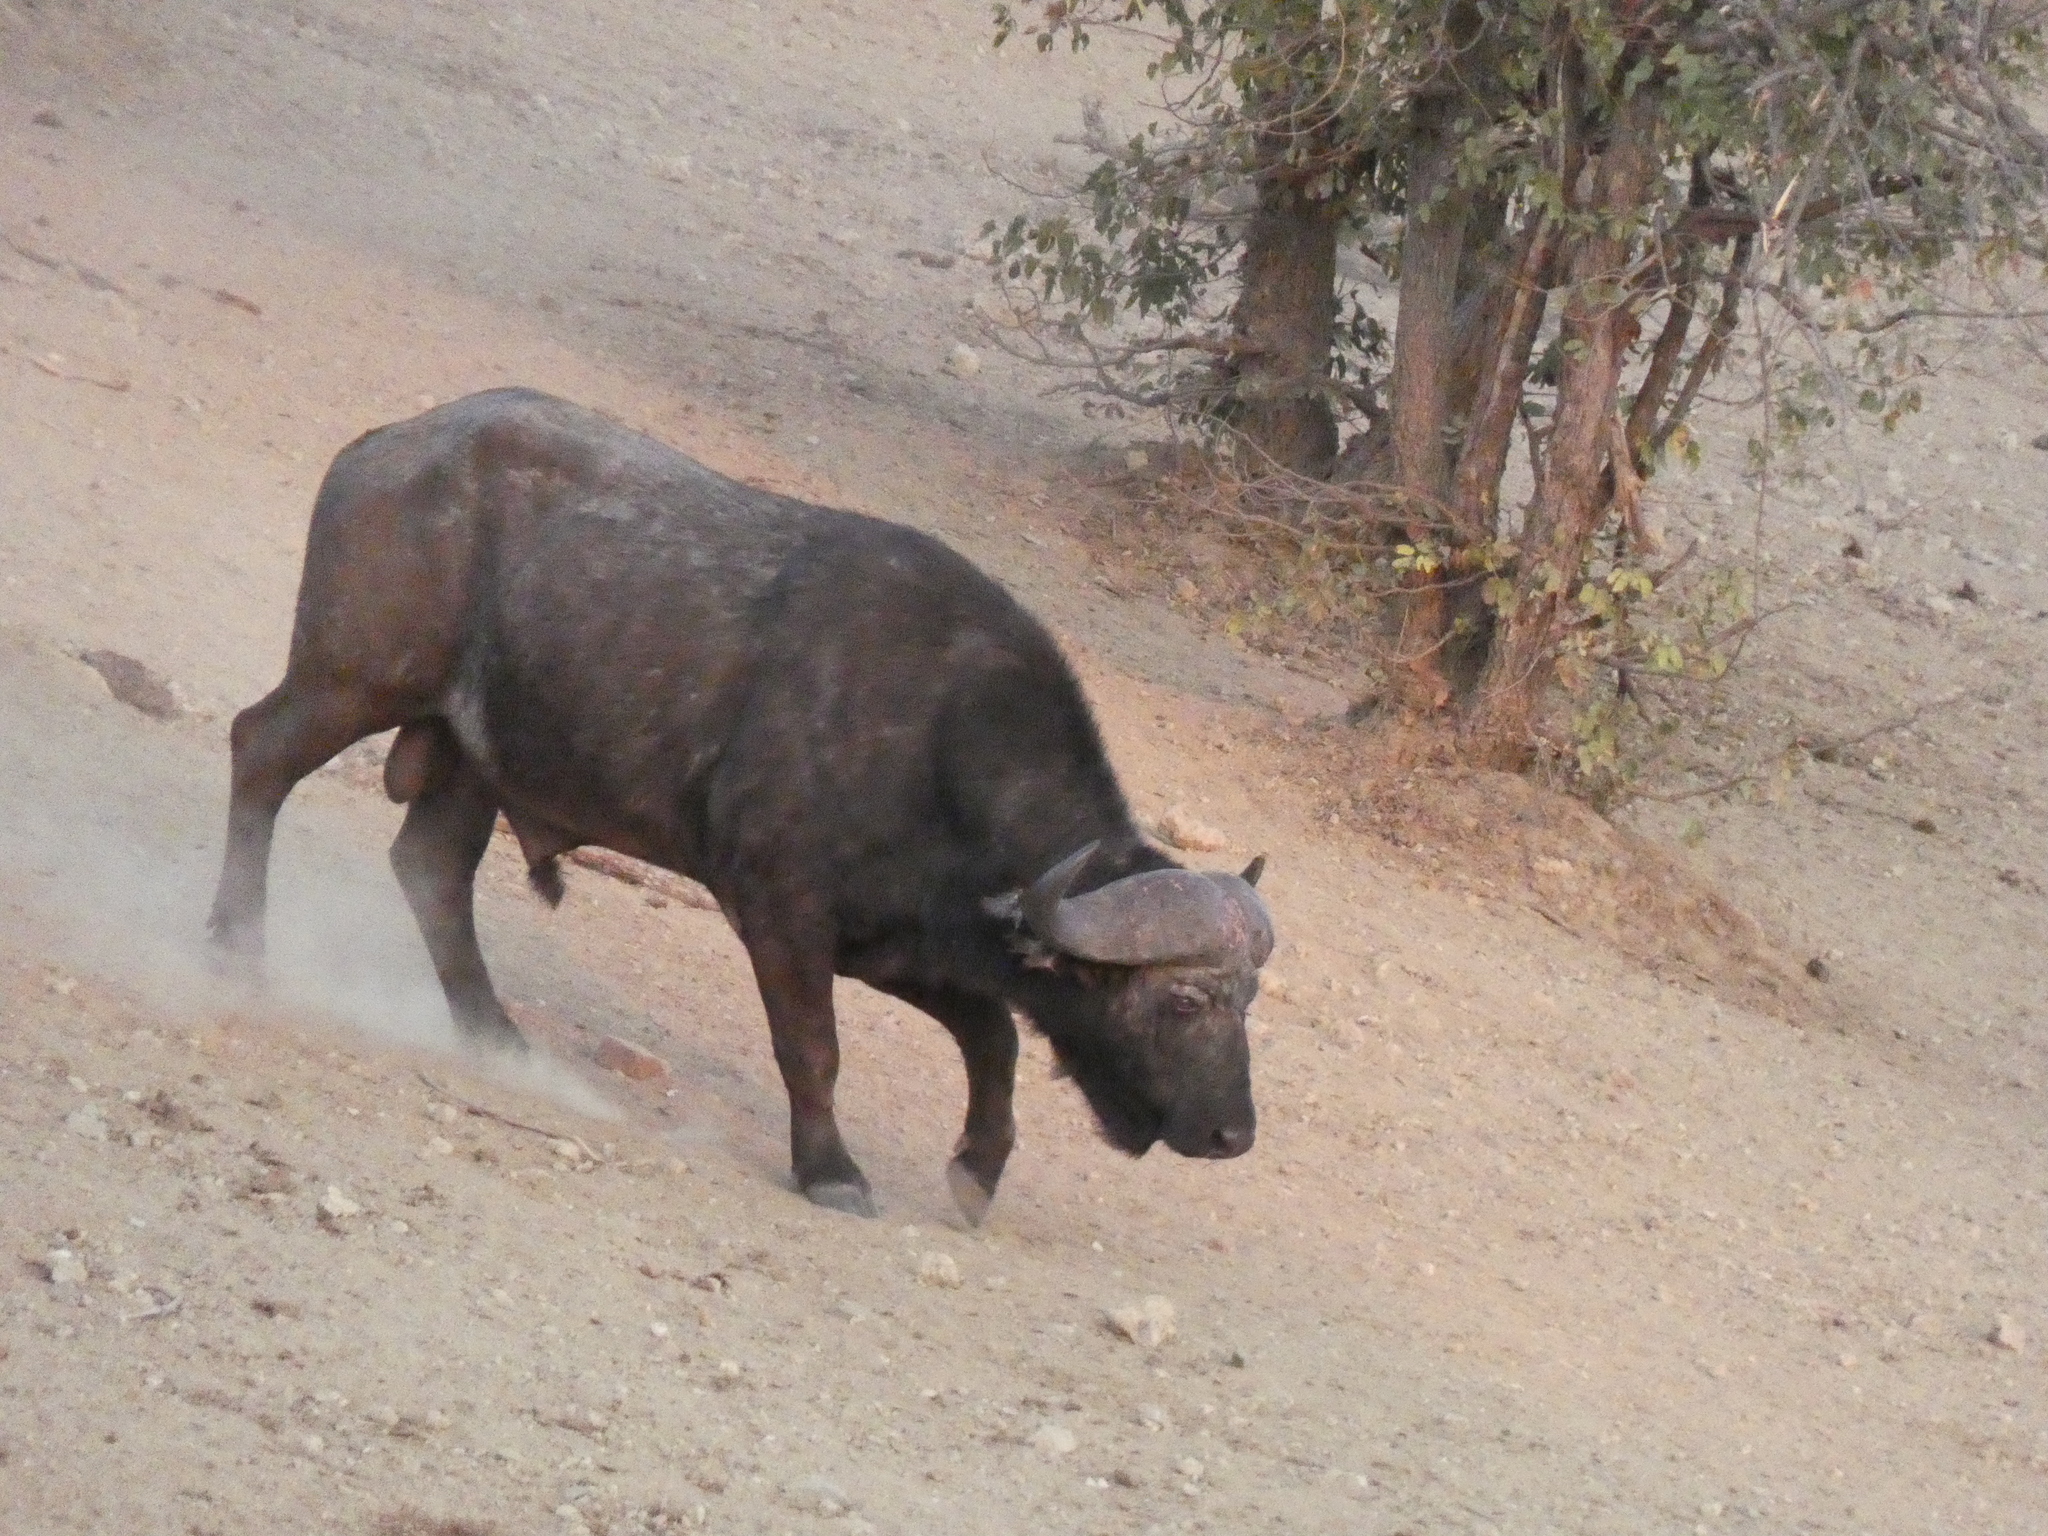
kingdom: Animalia
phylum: Chordata
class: Mammalia
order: Artiodactyla
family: Bovidae
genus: Syncerus
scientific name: Syncerus caffer
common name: African buffalo
